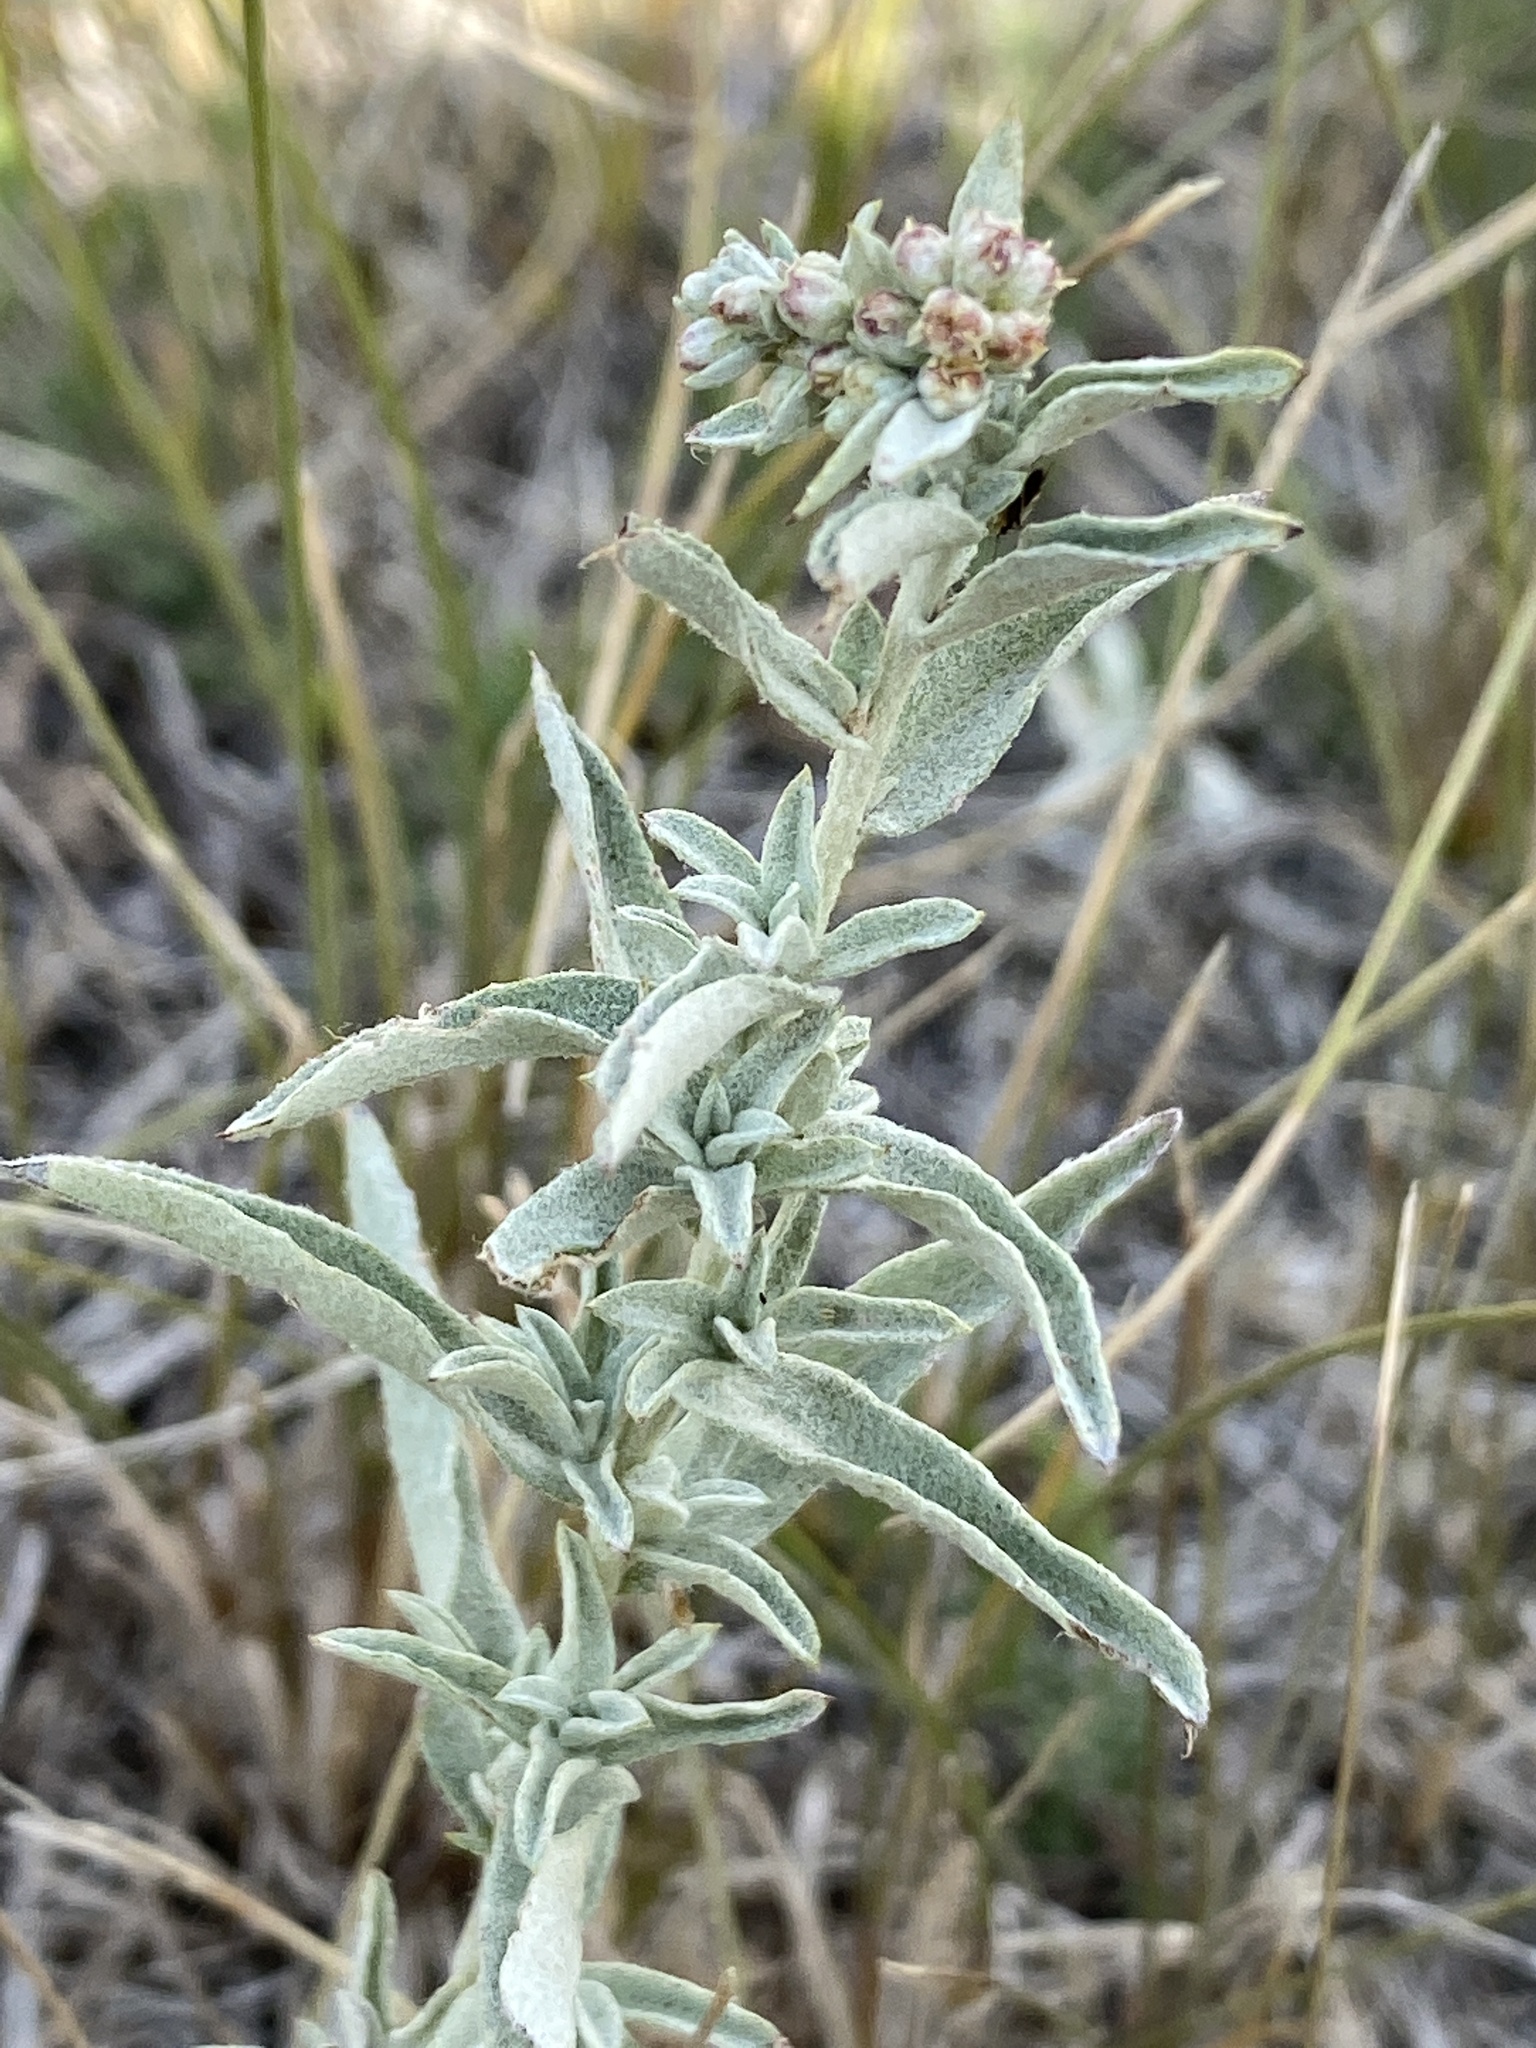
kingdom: Plantae
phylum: Tracheophyta
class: Magnoliopsida
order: Caryophyllales
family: Amaranthaceae
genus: Atriplex
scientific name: Atriplex gardneri
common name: Gardner's orache
